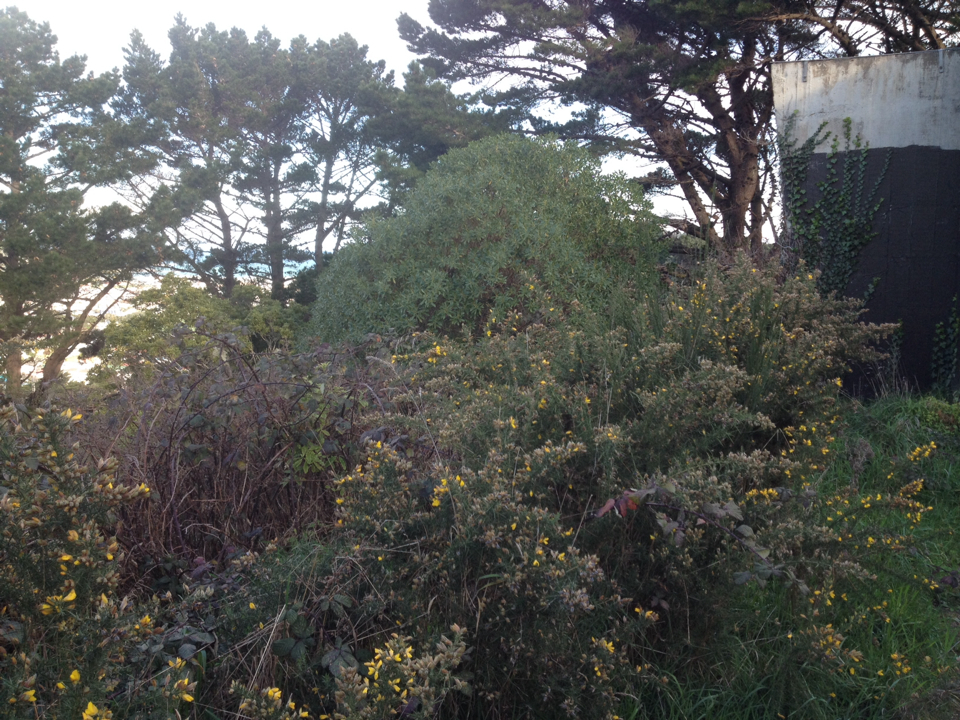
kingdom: Plantae
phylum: Tracheophyta
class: Magnoliopsida
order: Fabales
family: Fabaceae
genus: Ulex
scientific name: Ulex europaeus
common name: Common gorse
